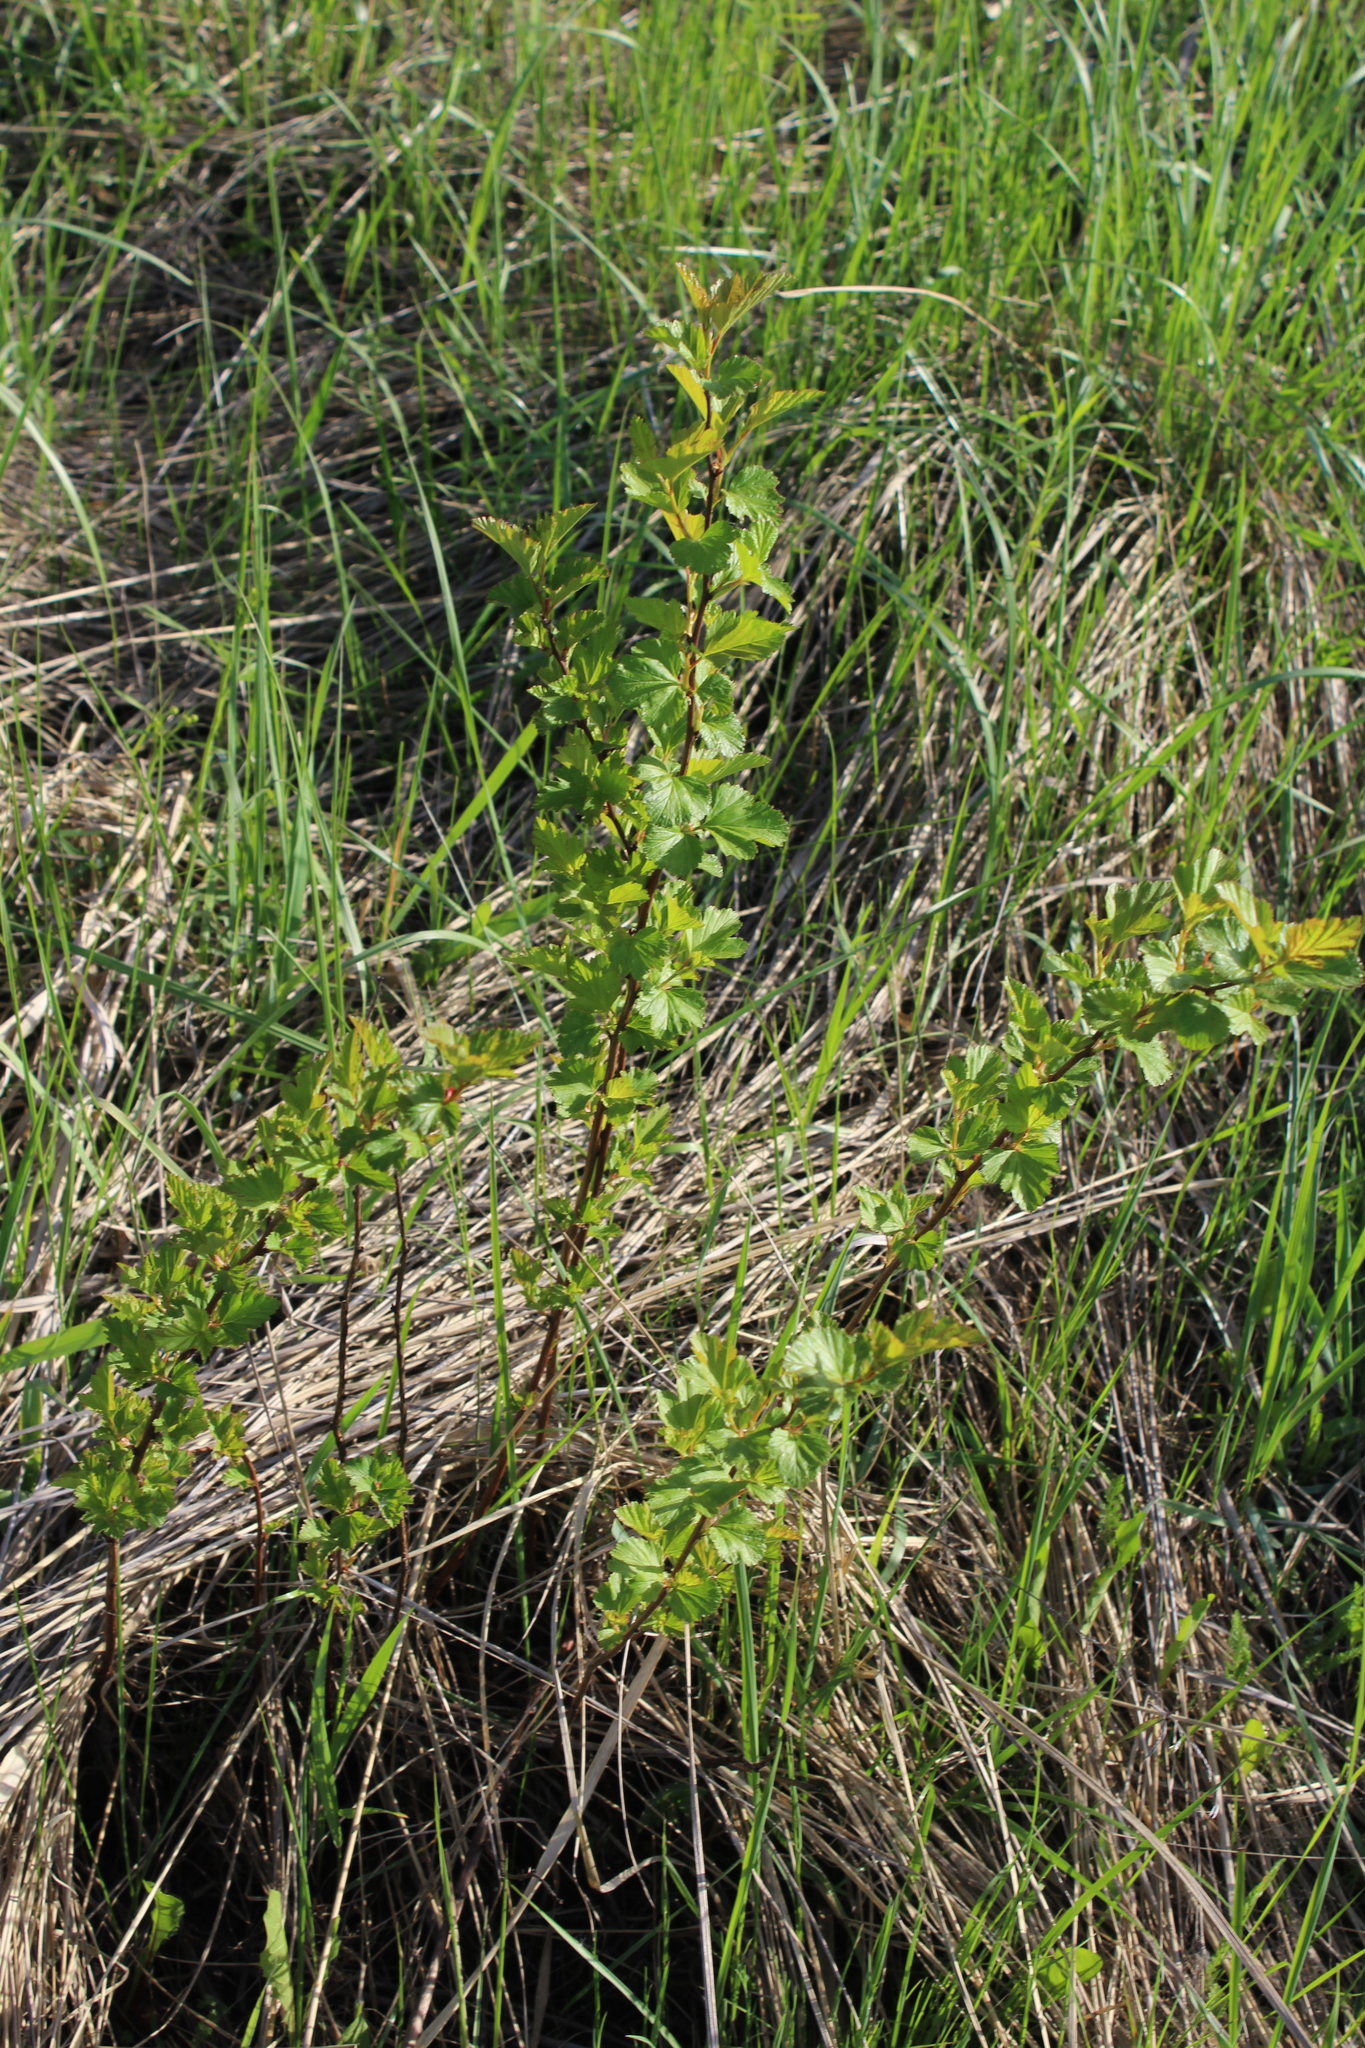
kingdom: Plantae
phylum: Tracheophyta
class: Magnoliopsida
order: Rosales
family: Rosaceae
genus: Physocarpus
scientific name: Physocarpus opulifolius
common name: Ninebark
